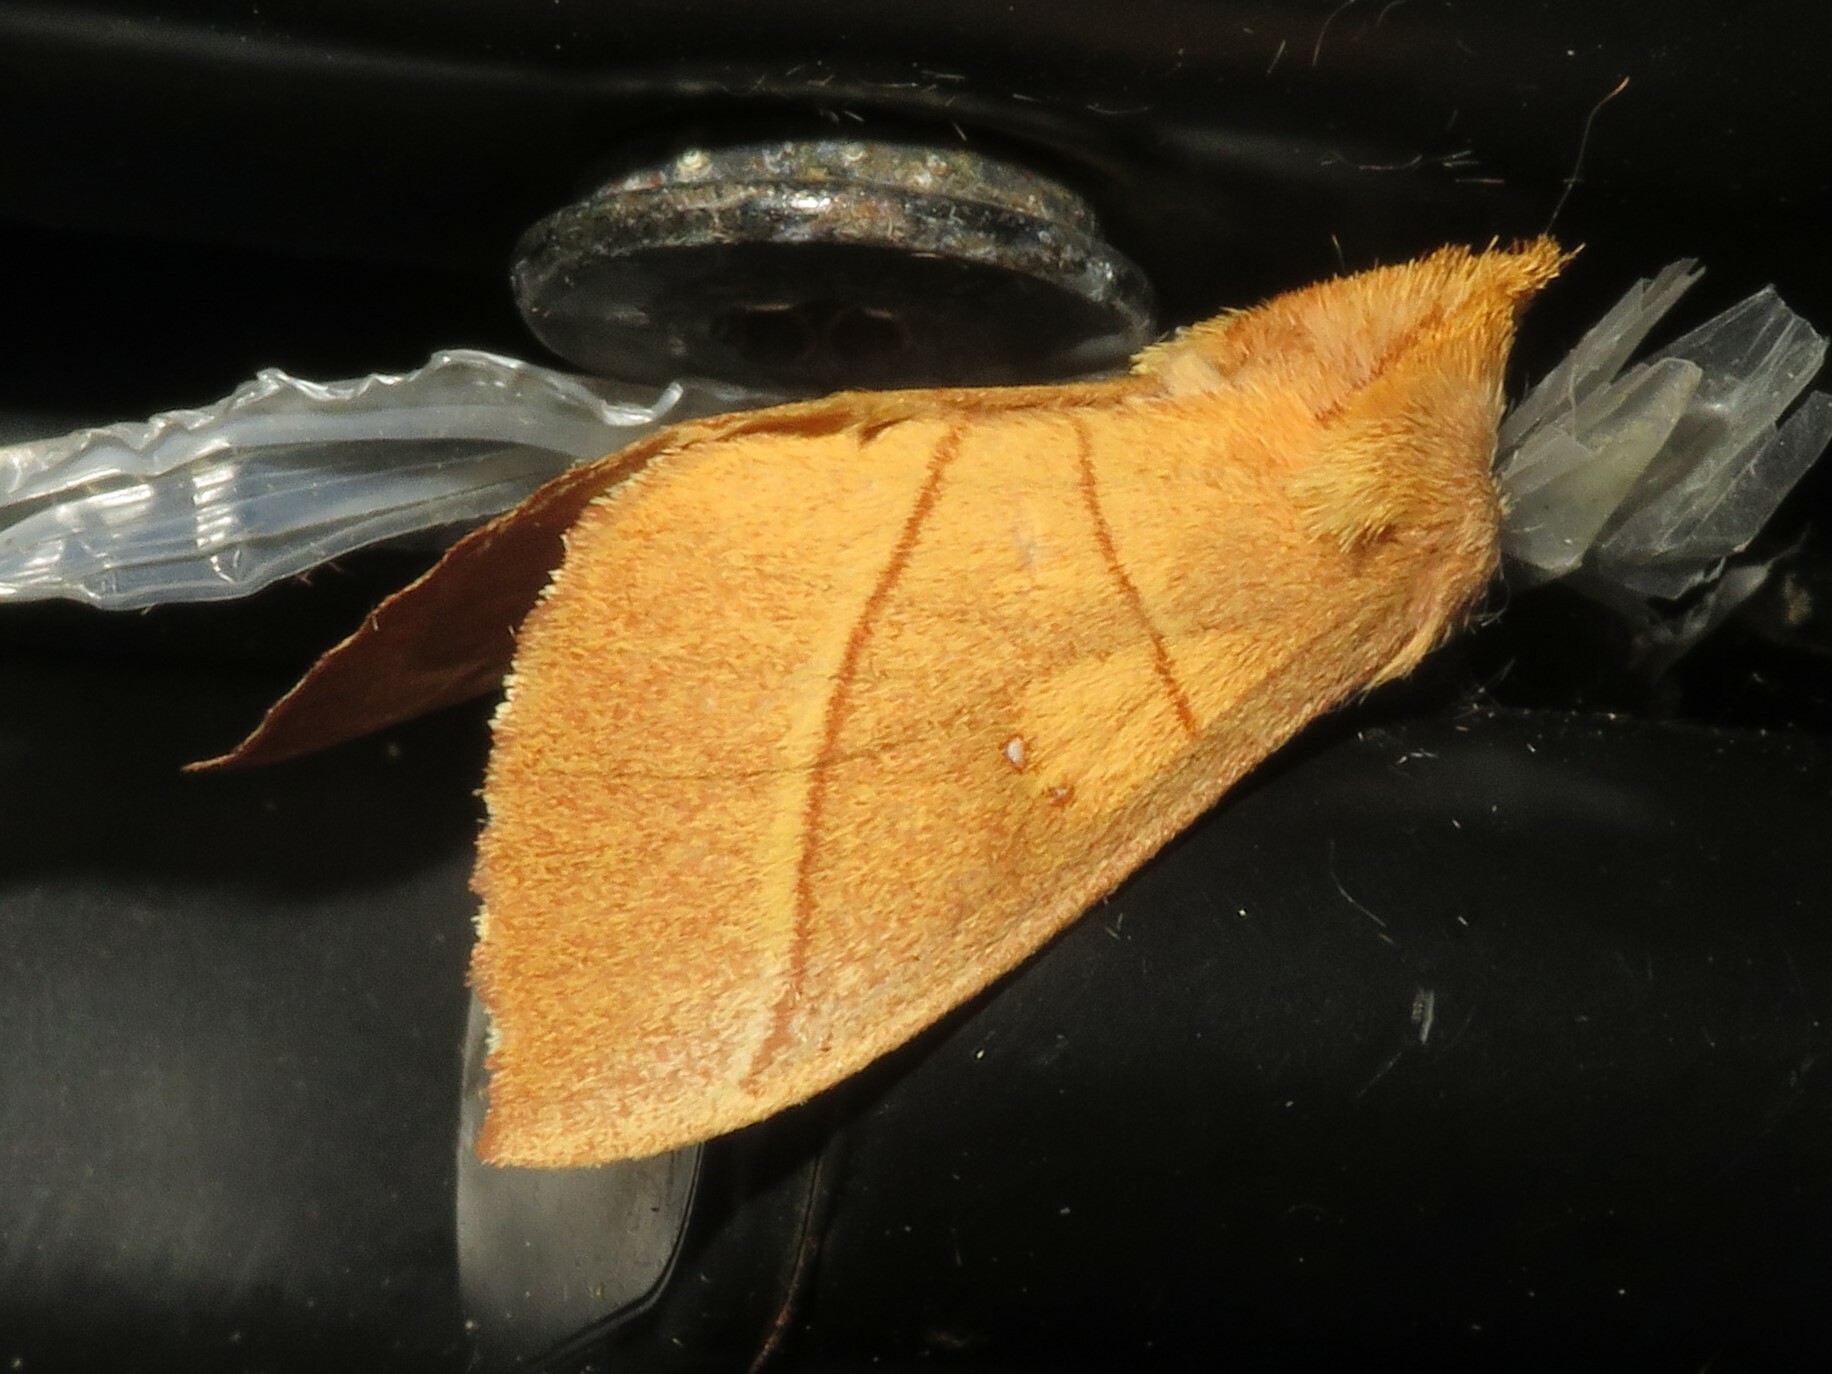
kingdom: Animalia
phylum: Arthropoda
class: Insecta
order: Lepidoptera
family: Notodontidae
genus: Nadata
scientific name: Nadata gibbosa
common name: White-dotted prominent
